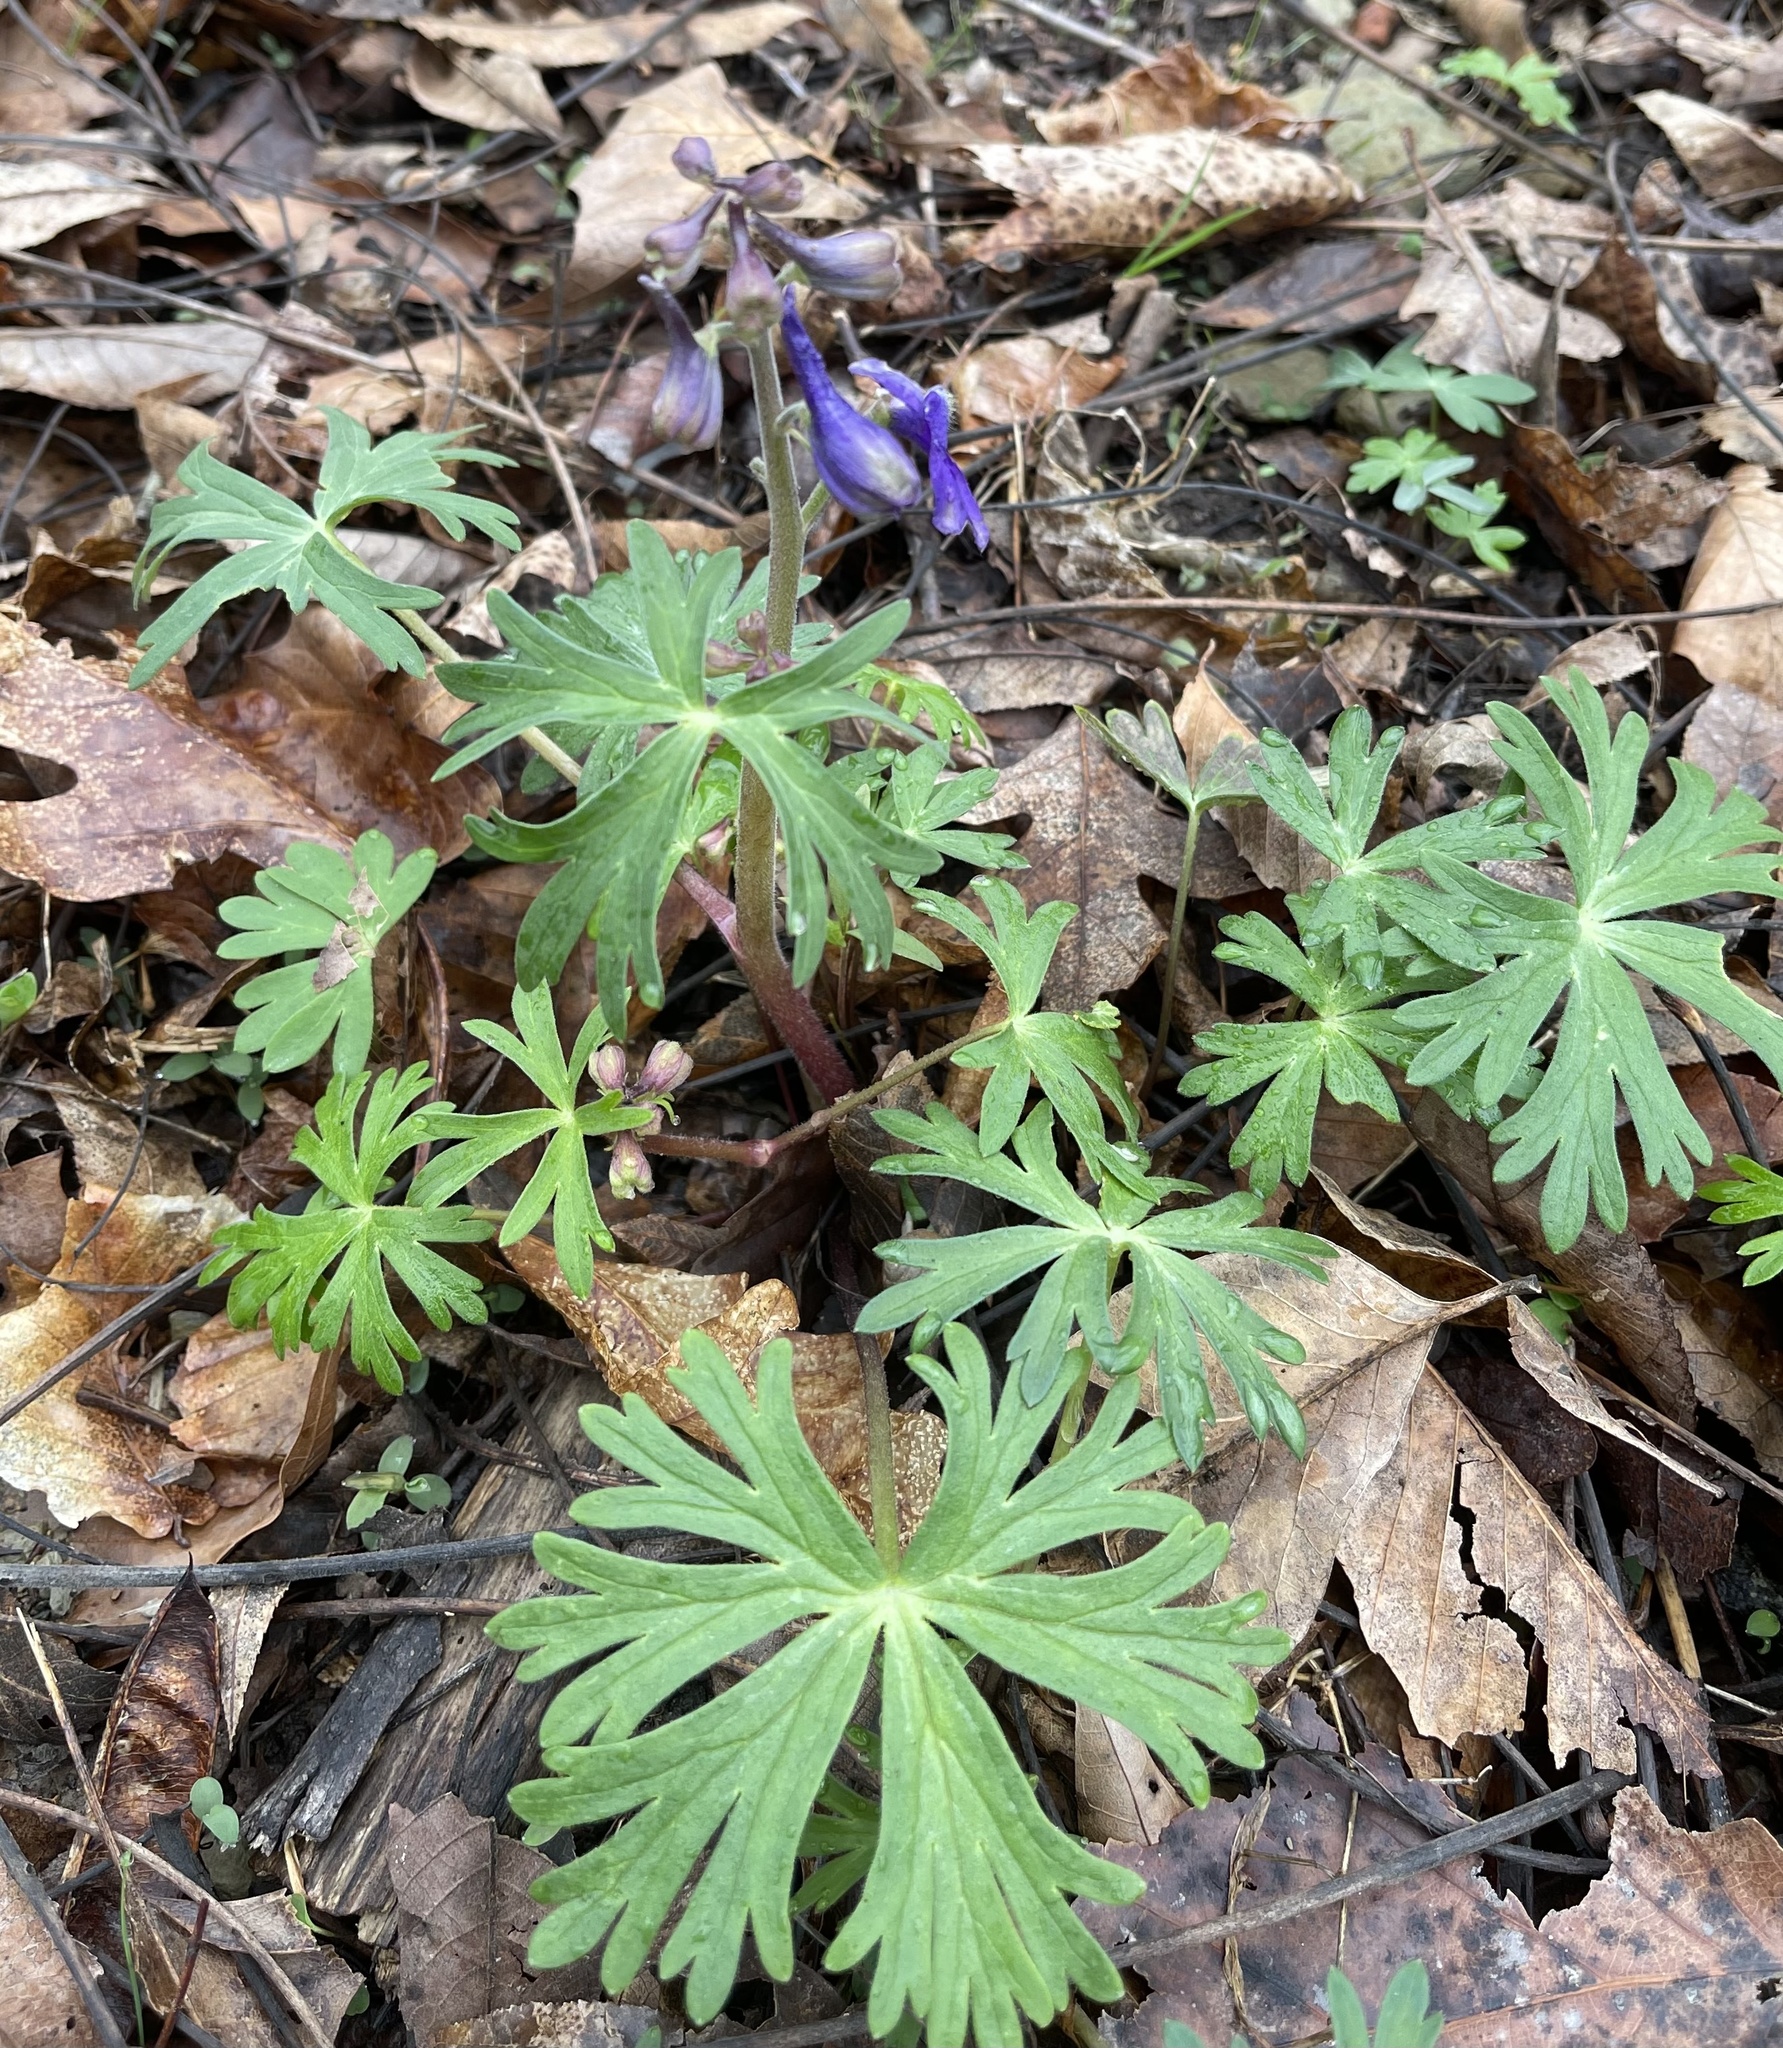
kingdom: Plantae
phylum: Tracheophyta
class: Magnoliopsida
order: Ranunculales
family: Ranunculaceae
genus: Delphinium
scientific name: Delphinium tricorne
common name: Dwarf larkspur
